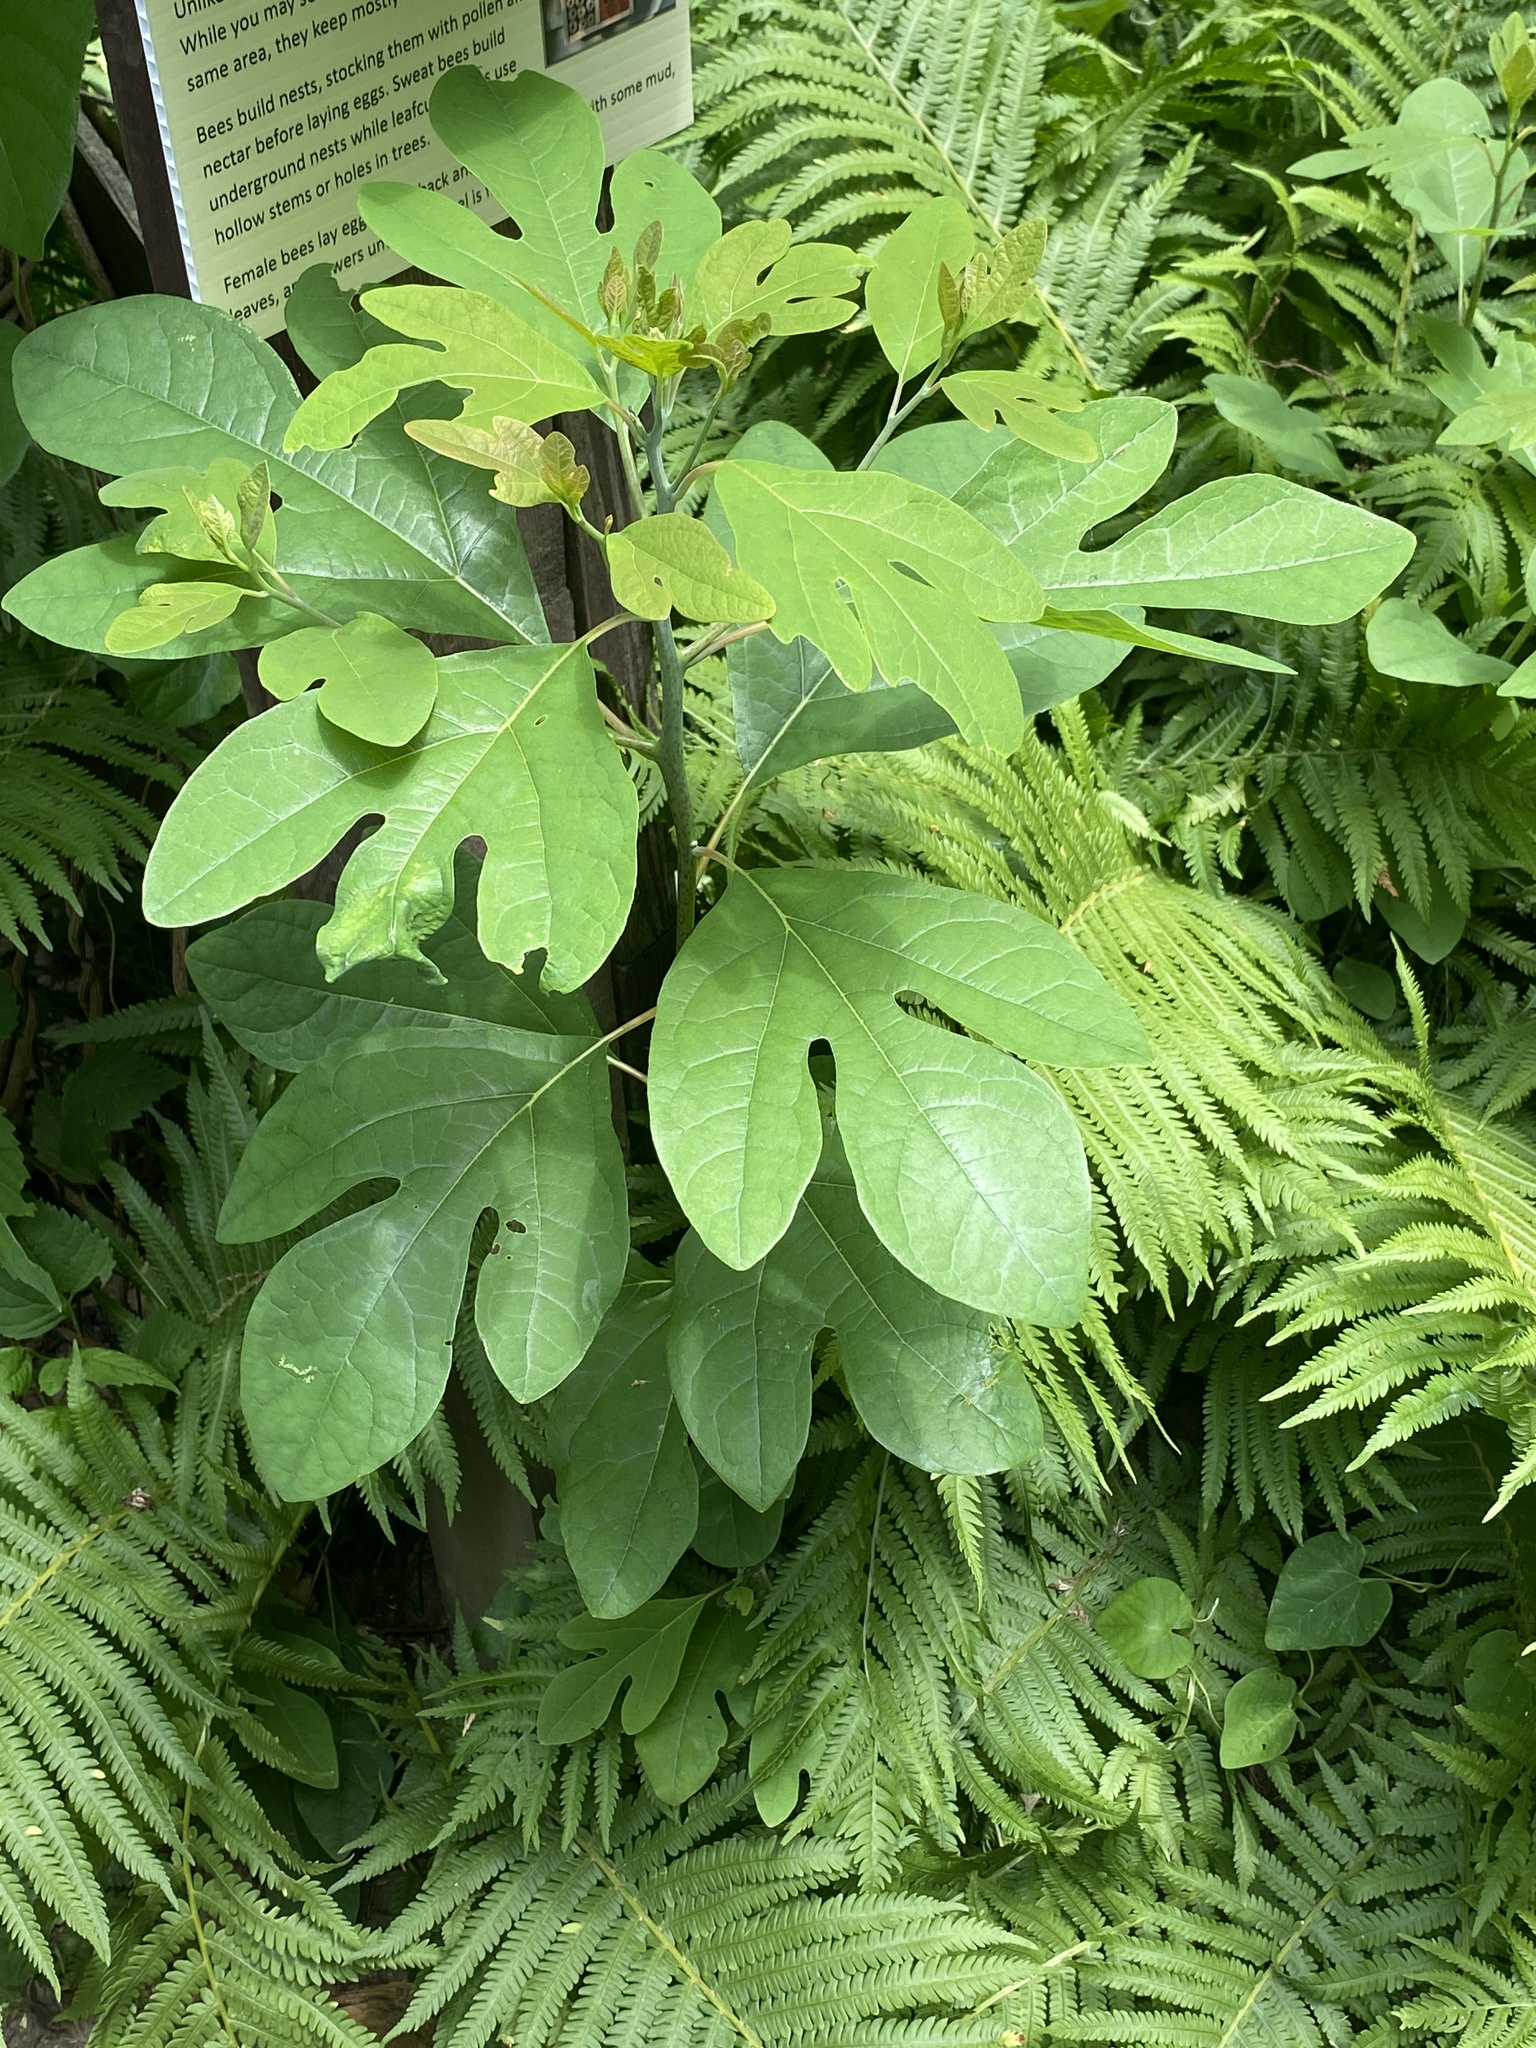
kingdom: Plantae
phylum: Tracheophyta
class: Magnoliopsida
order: Laurales
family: Lauraceae
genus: Sassafras
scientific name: Sassafras albidum
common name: Sassafras
